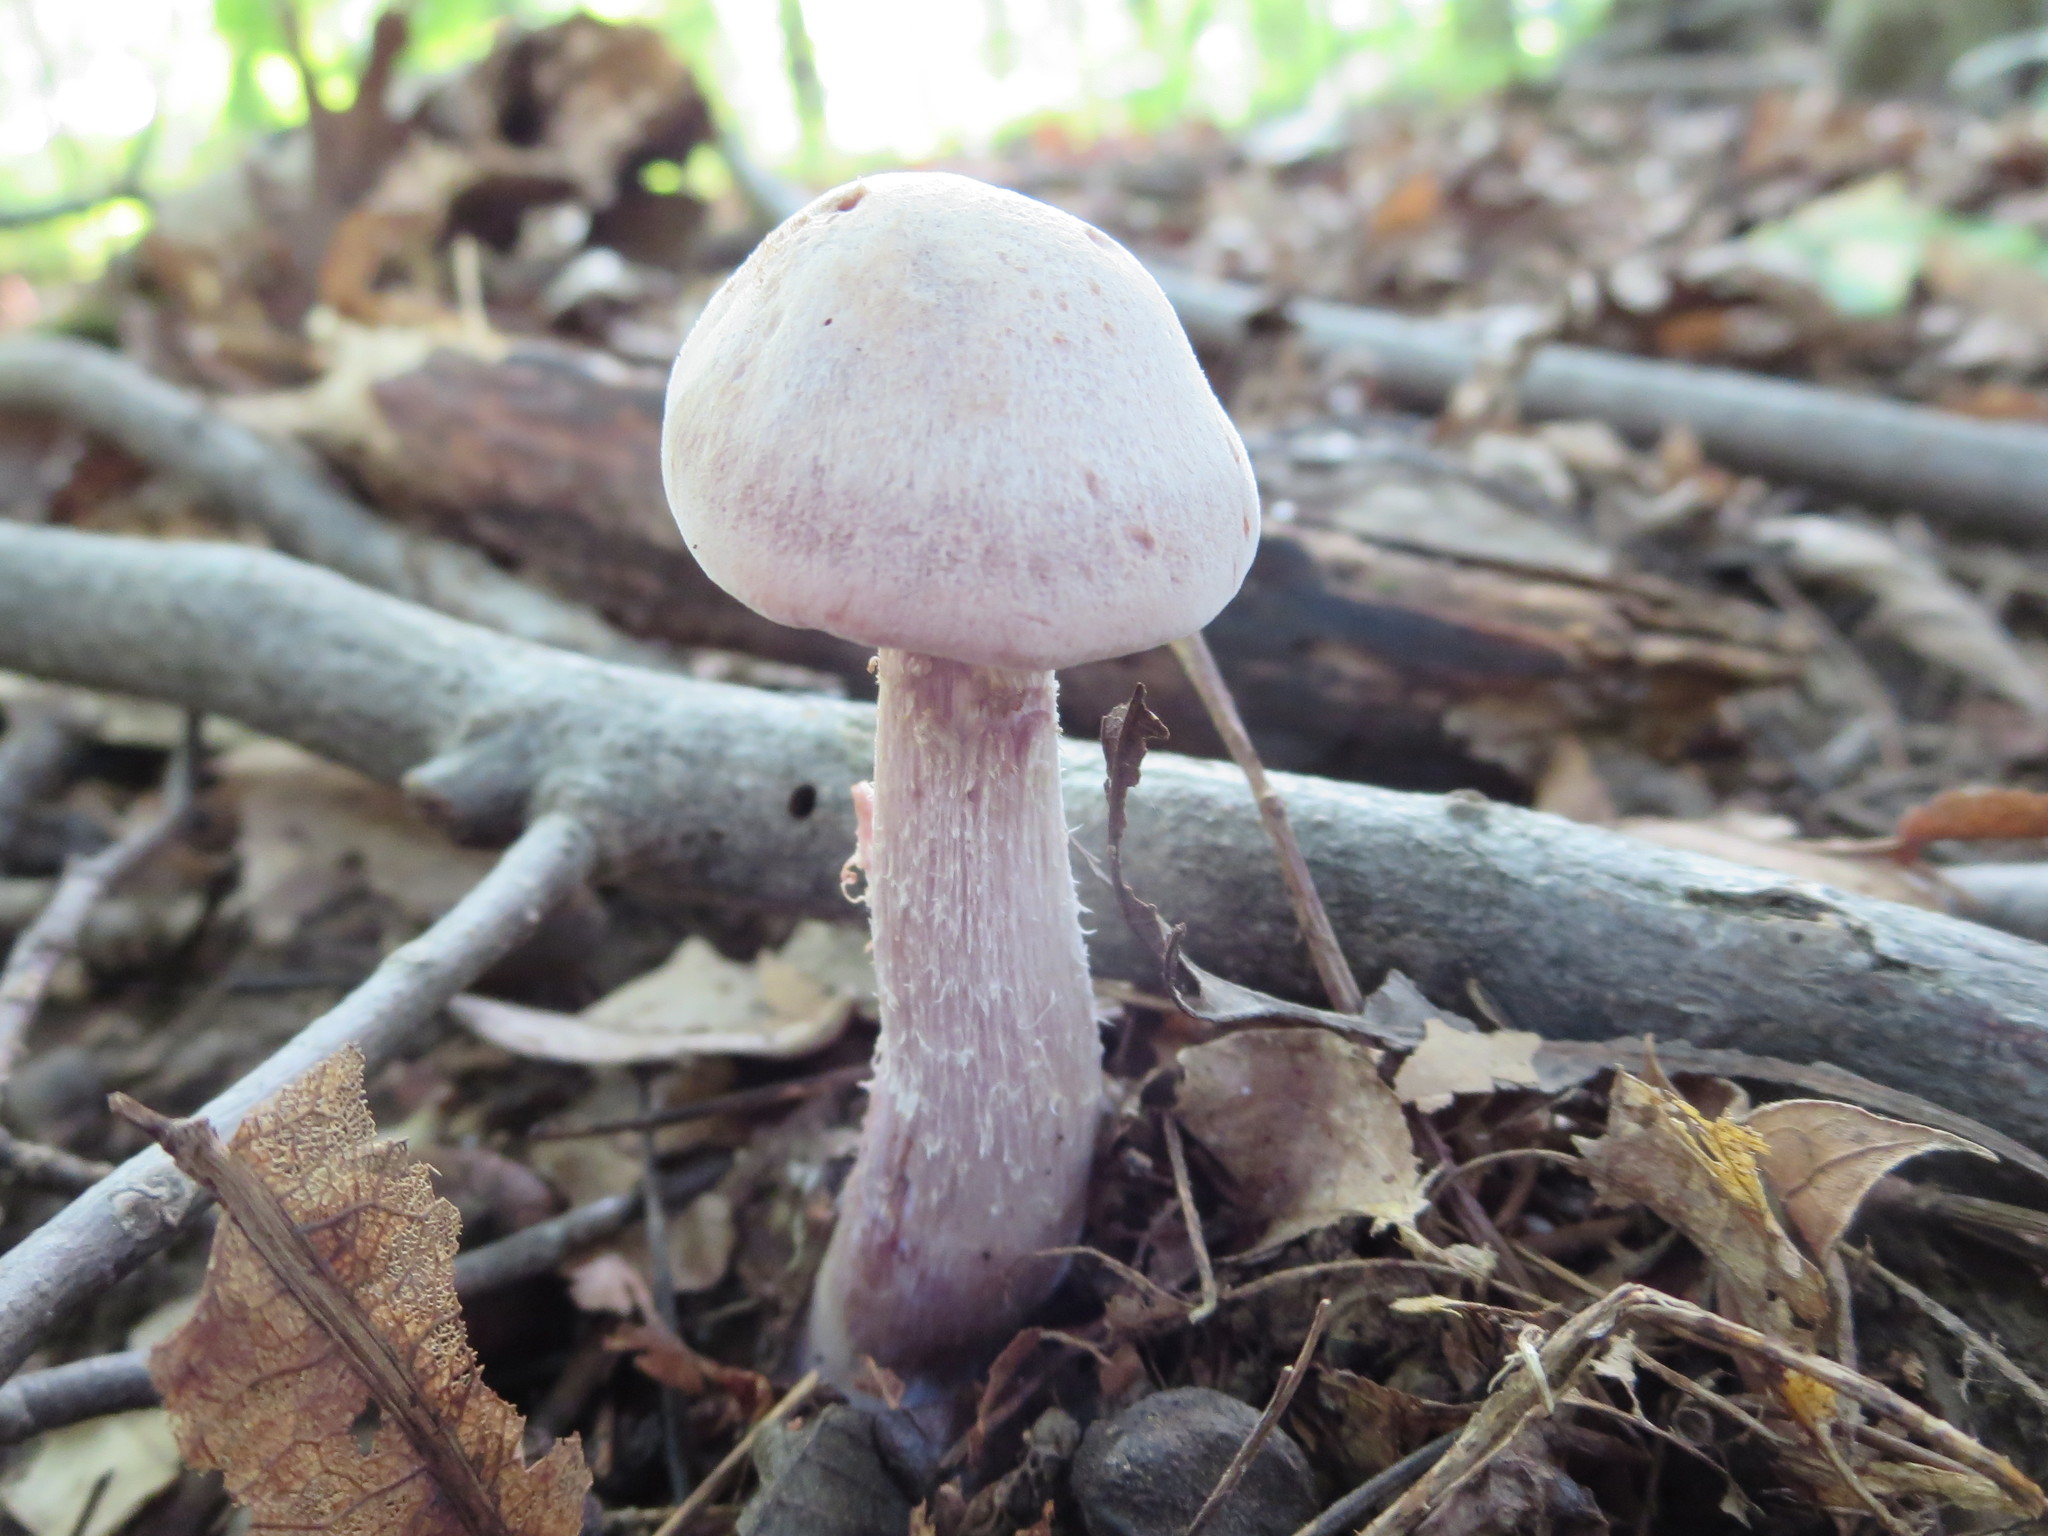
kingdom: Fungi
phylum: Basidiomycota
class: Agaricomycetes
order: Agaricales
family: Hydnangiaceae
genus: Laccaria
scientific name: Laccaria ochropurpurea
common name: Purple laccaria
